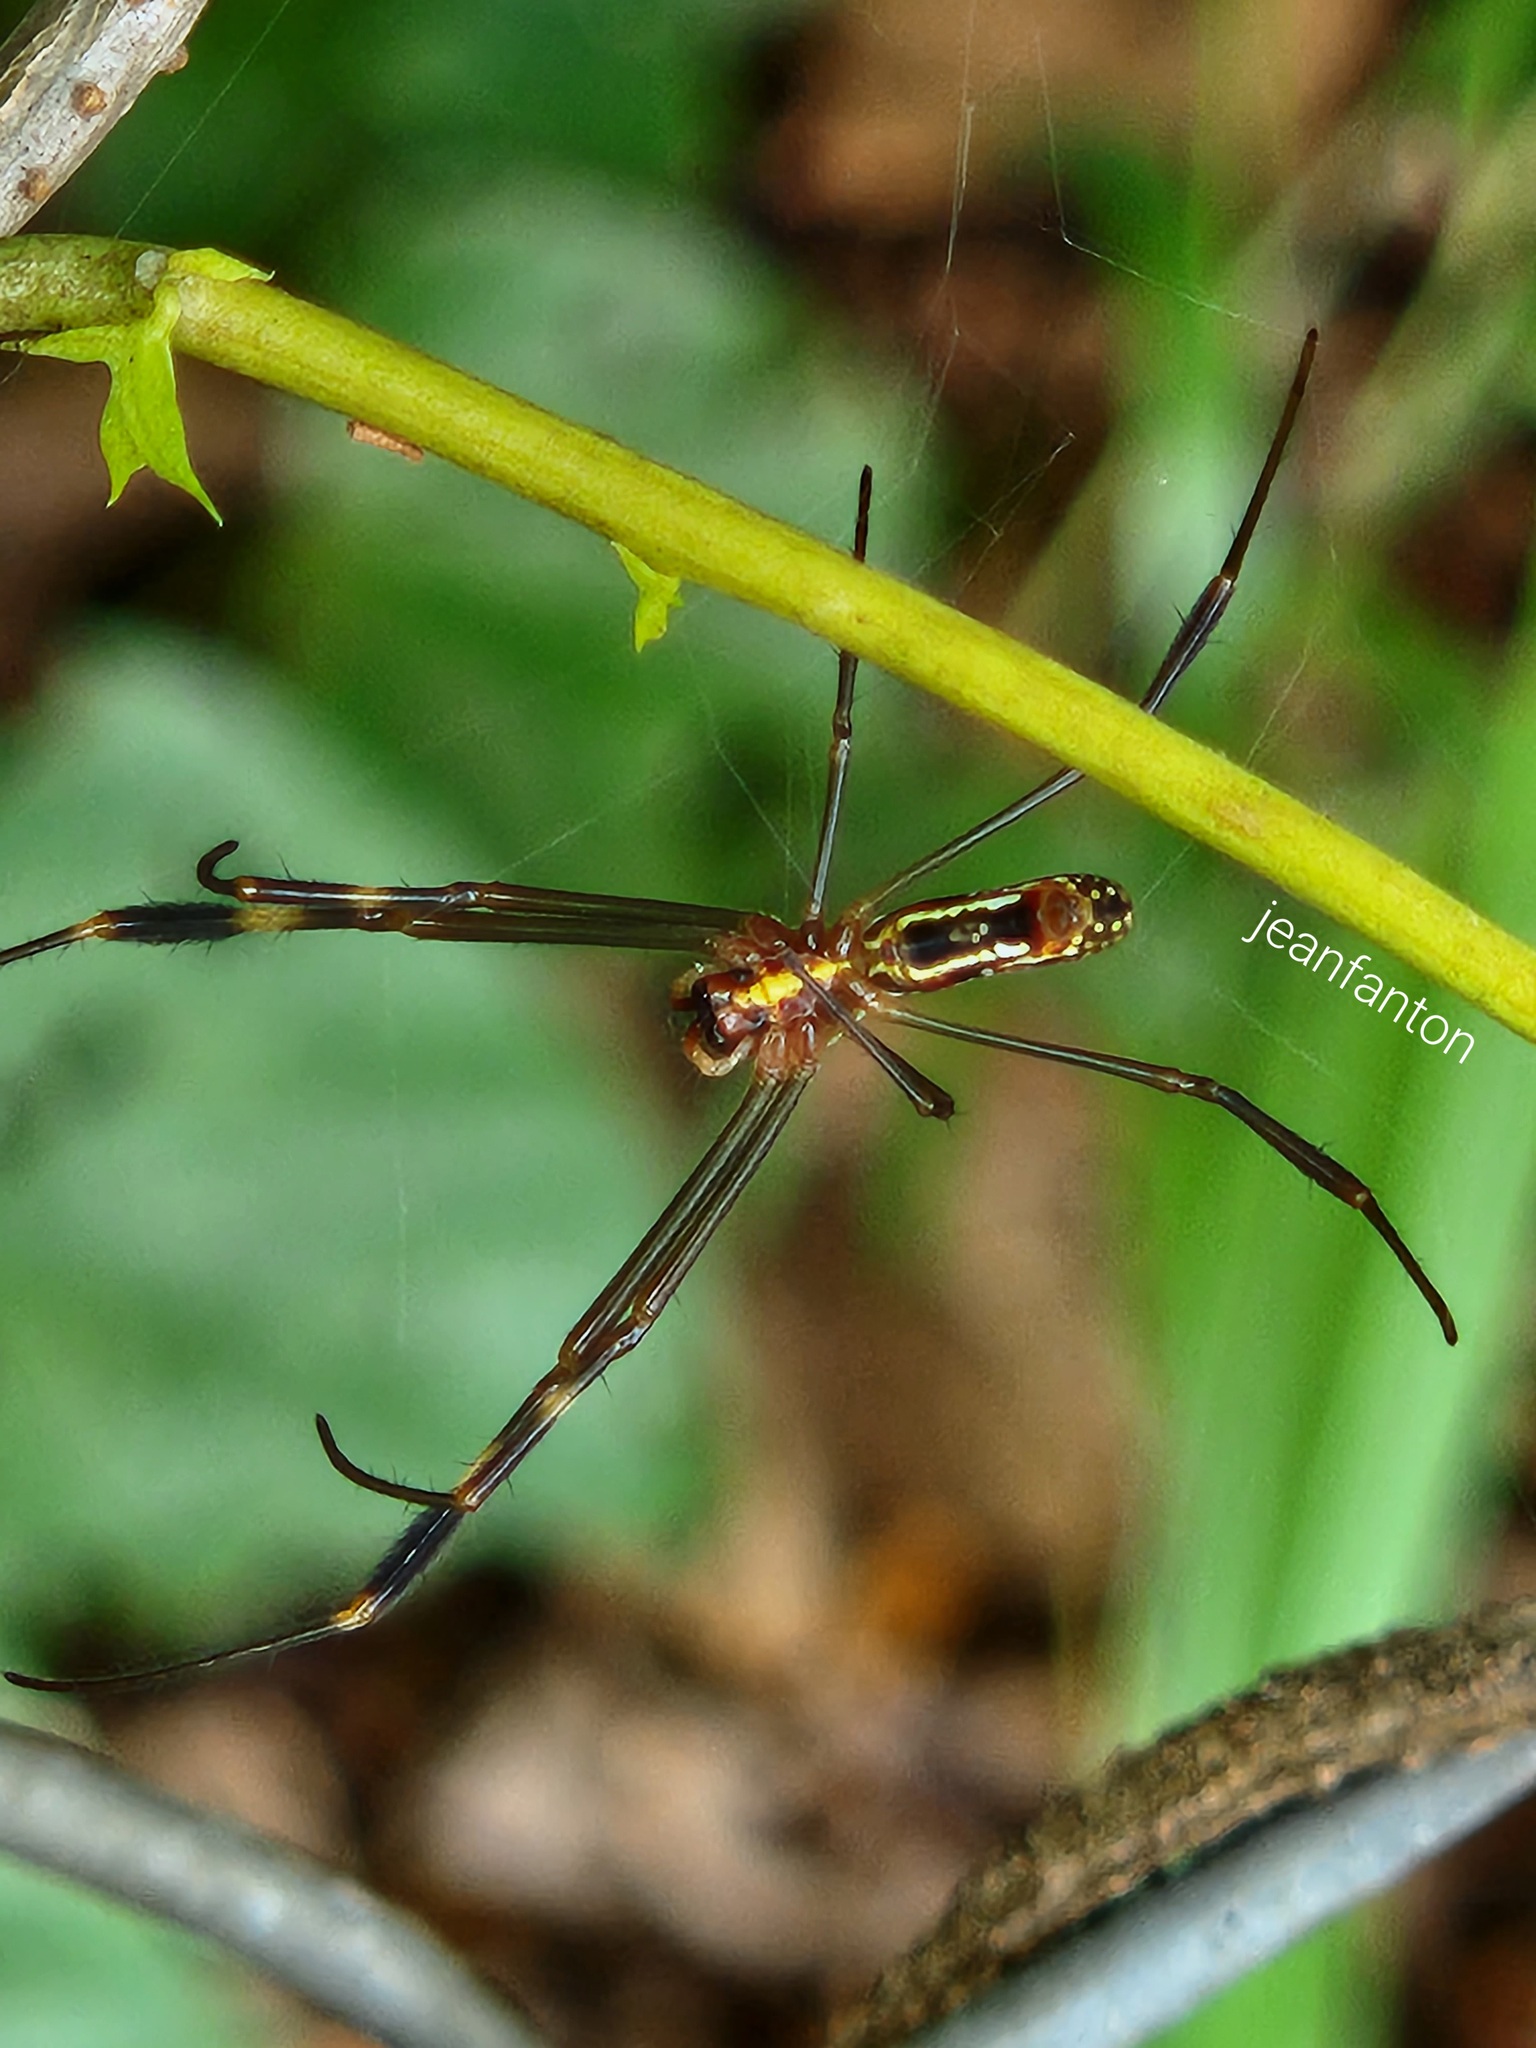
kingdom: Animalia
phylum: Arthropoda
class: Arachnida
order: Araneae
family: Araneidae
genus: Trichonephila
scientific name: Trichonephila clavipes
